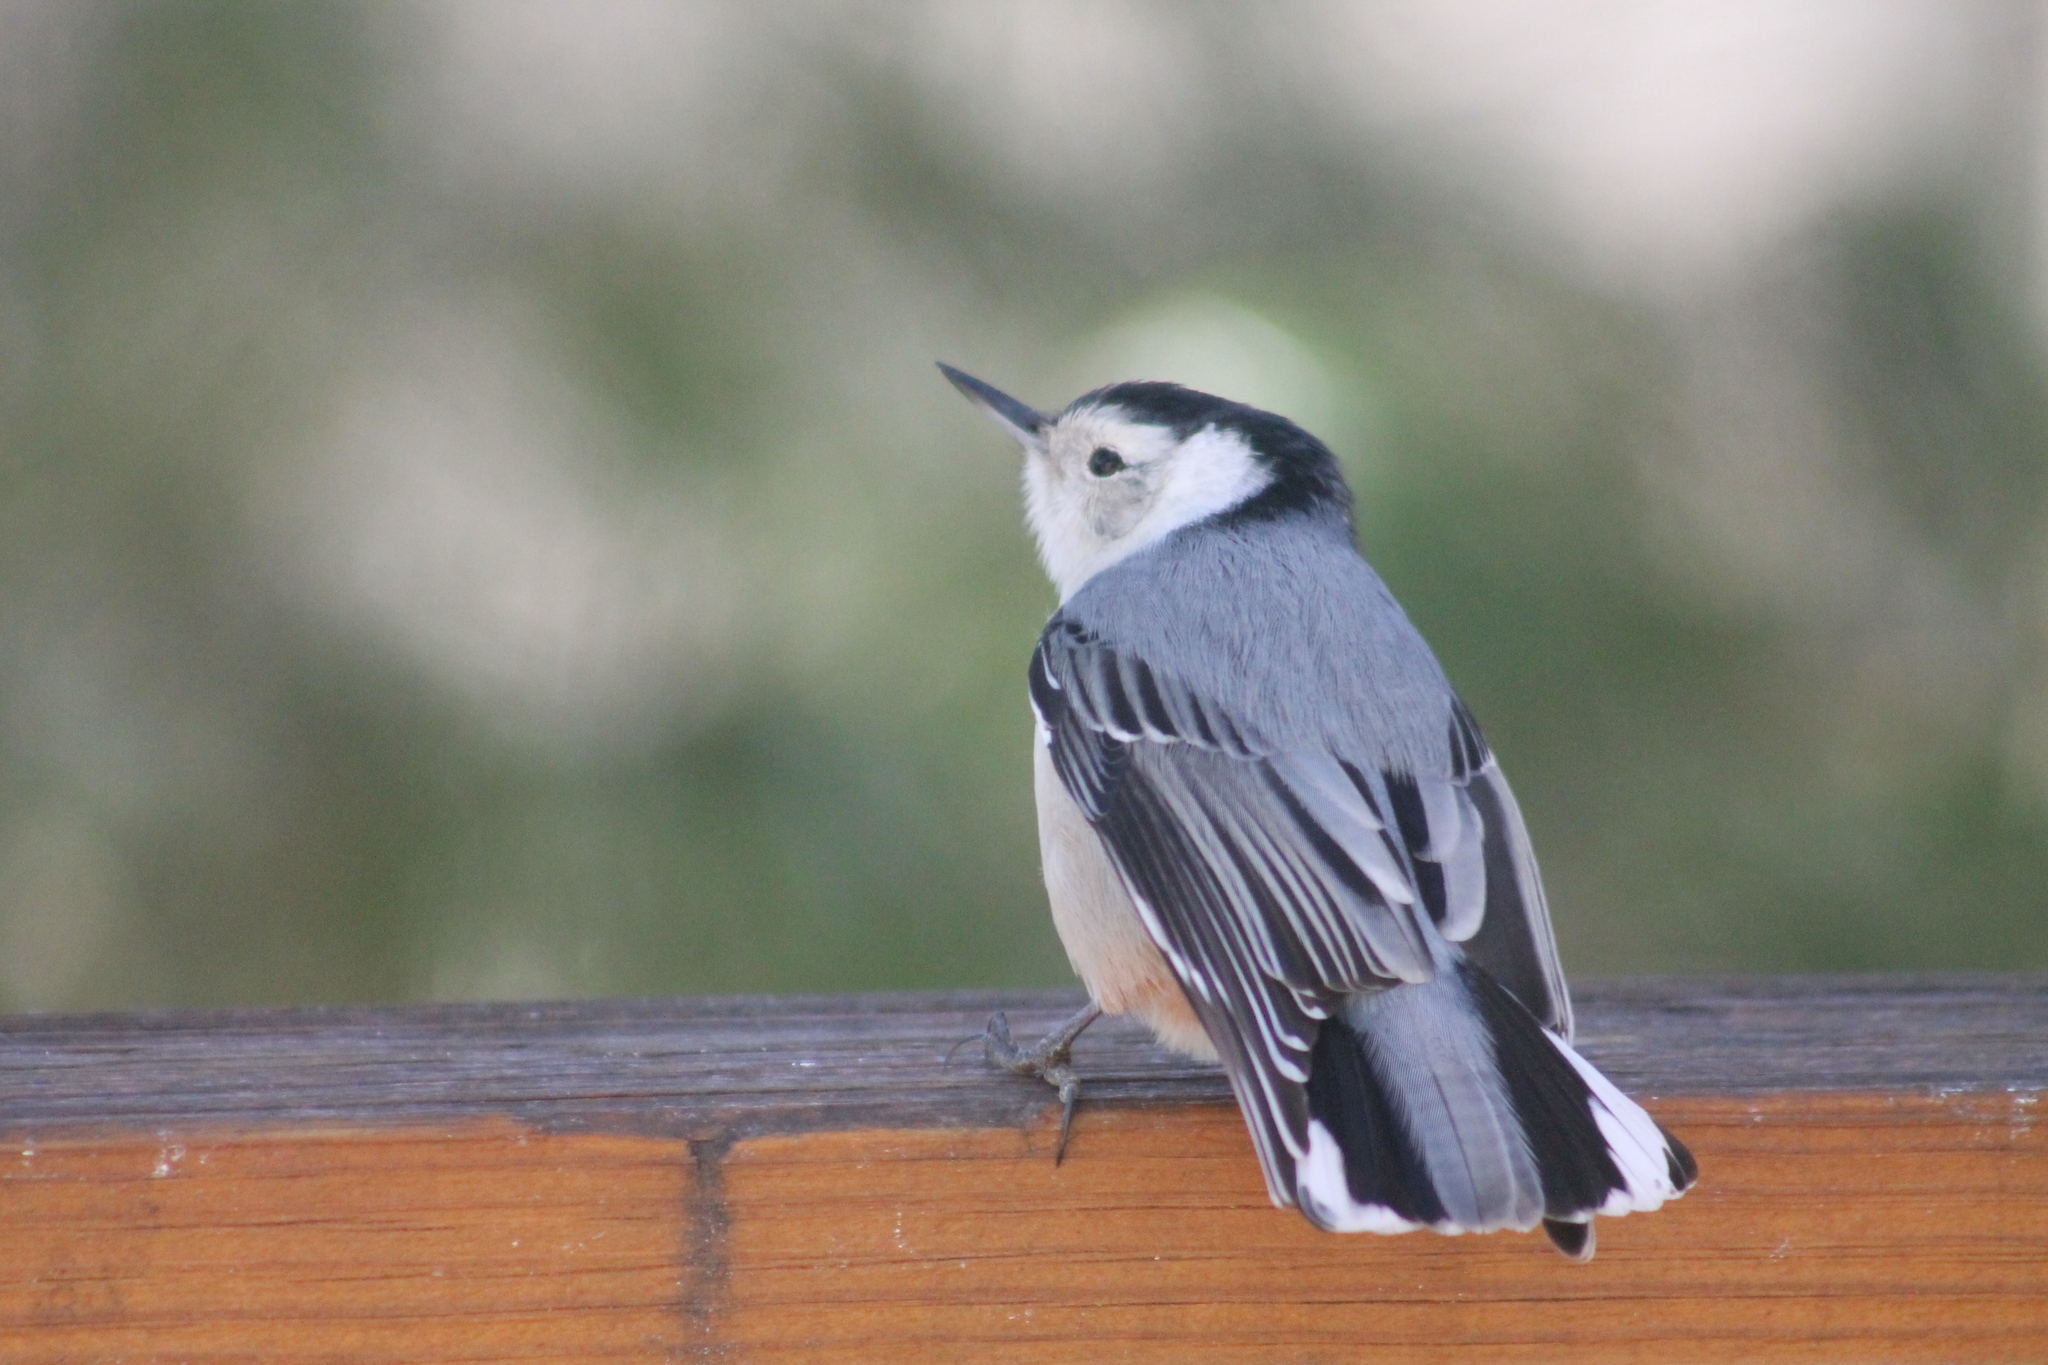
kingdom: Animalia
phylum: Chordata
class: Aves
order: Passeriformes
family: Sittidae
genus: Sitta
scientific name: Sitta carolinensis
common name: White-breasted nuthatch
